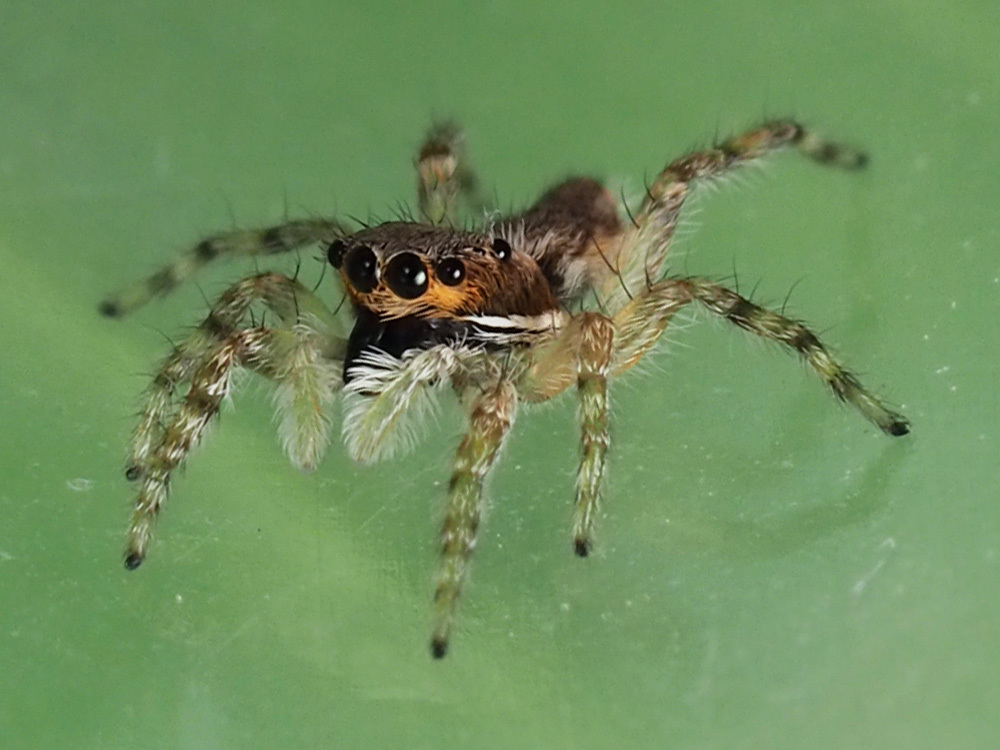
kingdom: Animalia
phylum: Arthropoda
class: Arachnida
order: Araneae
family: Salticidae
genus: Menemerus
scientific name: Menemerus bivittatus
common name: Gray wall jumper
